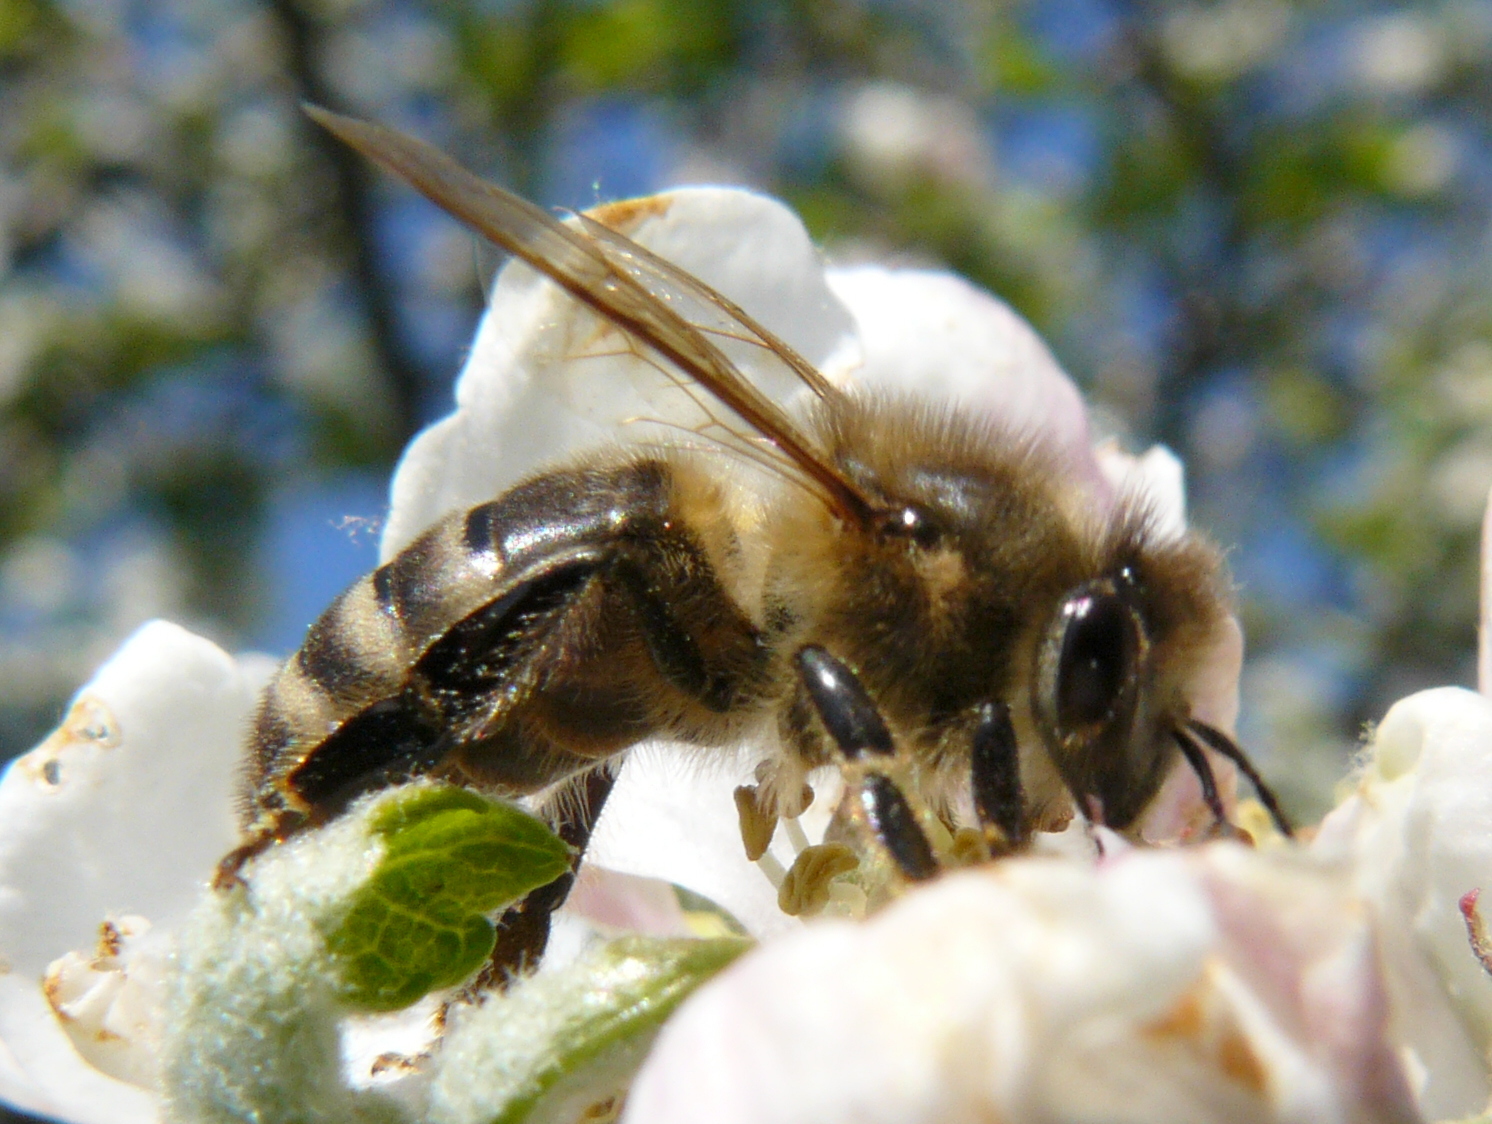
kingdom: Animalia
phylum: Arthropoda
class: Insecta
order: Hymenoptera
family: Apidae
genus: Apis
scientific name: Apis mellifera
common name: Honey bee
